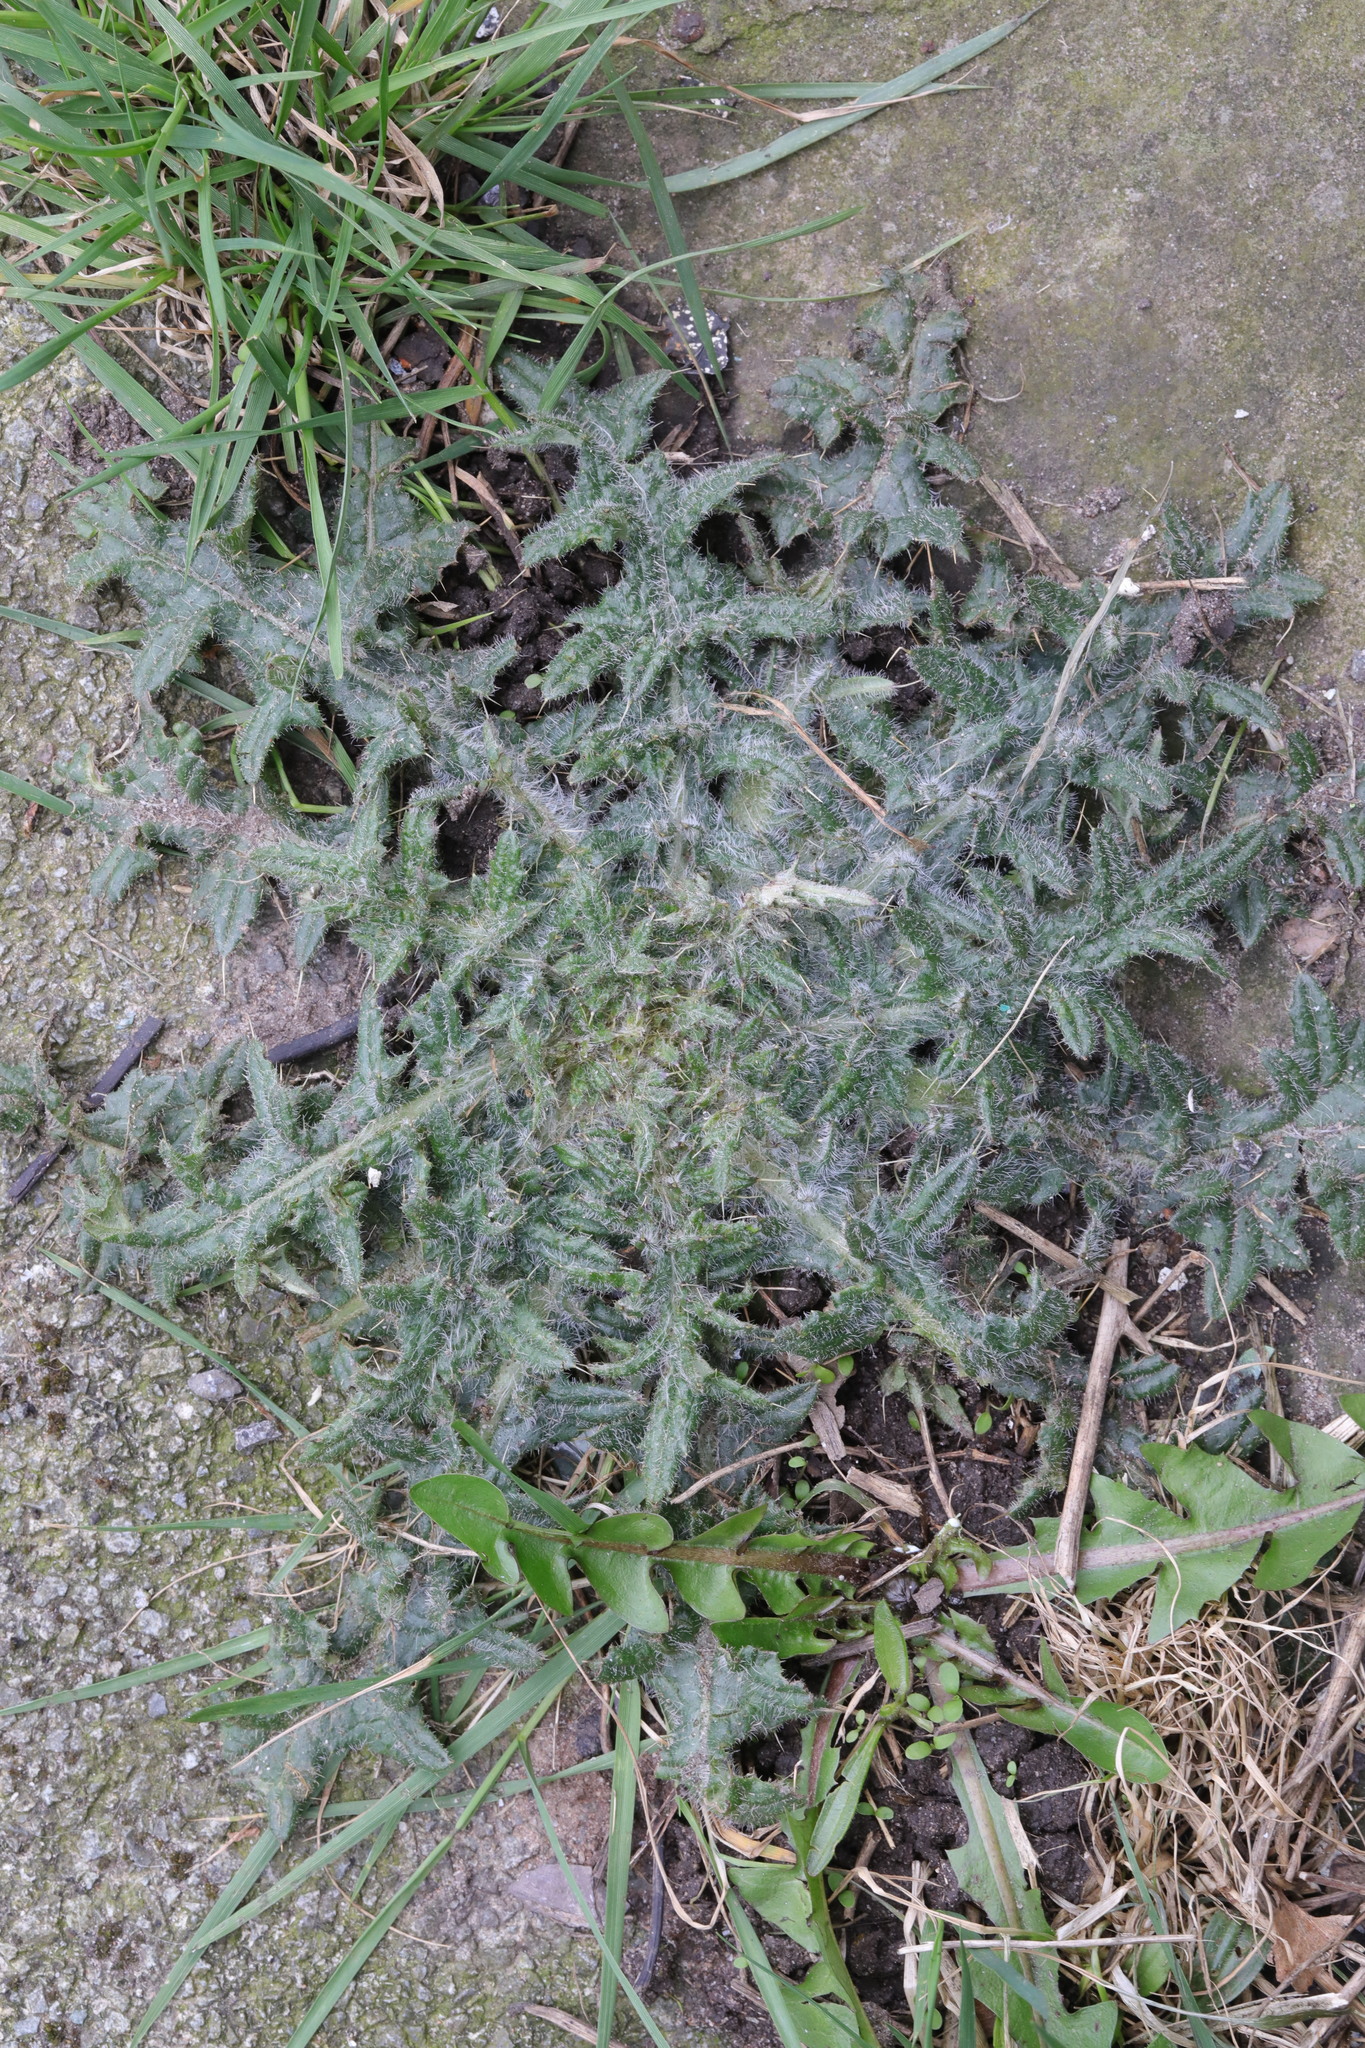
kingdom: Plantae
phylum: Tracheophyta
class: Magnoliopsida
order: Asterales
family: Asteraceae
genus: Cirsium
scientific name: Cirsium vulgare
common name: Bull thistle
